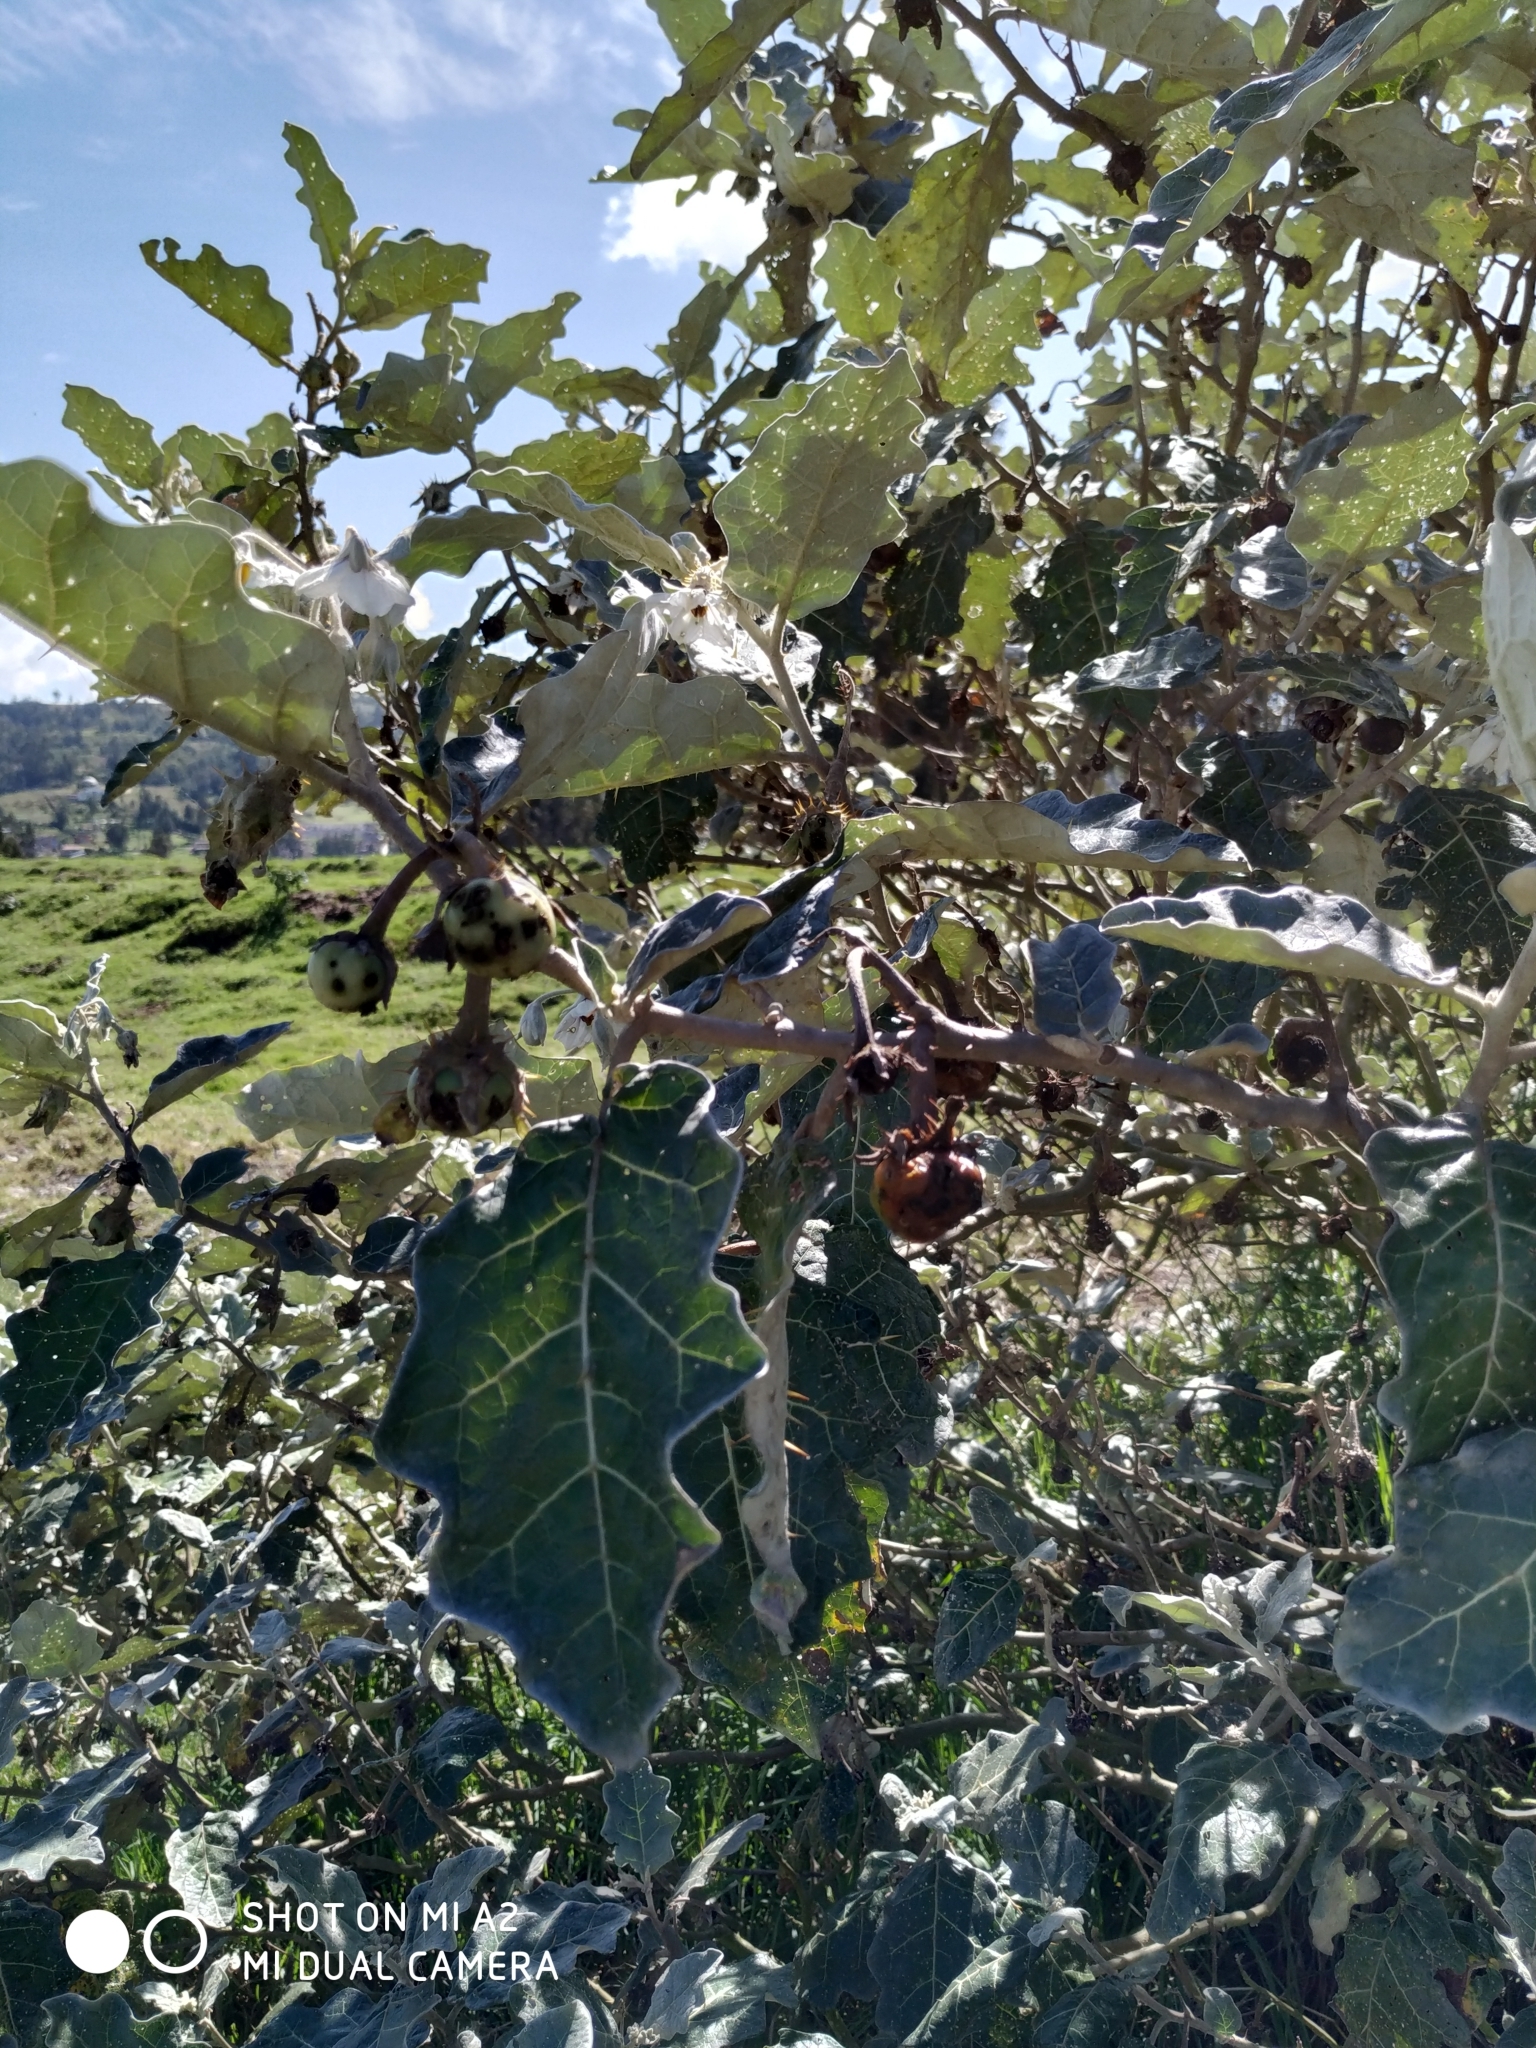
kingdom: Plantae
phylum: Tracheophyta
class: Magnoliopsida
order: Solanales
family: Solanaceae
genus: Solanum
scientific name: Solanum marginatum
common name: Purple african nightshade
